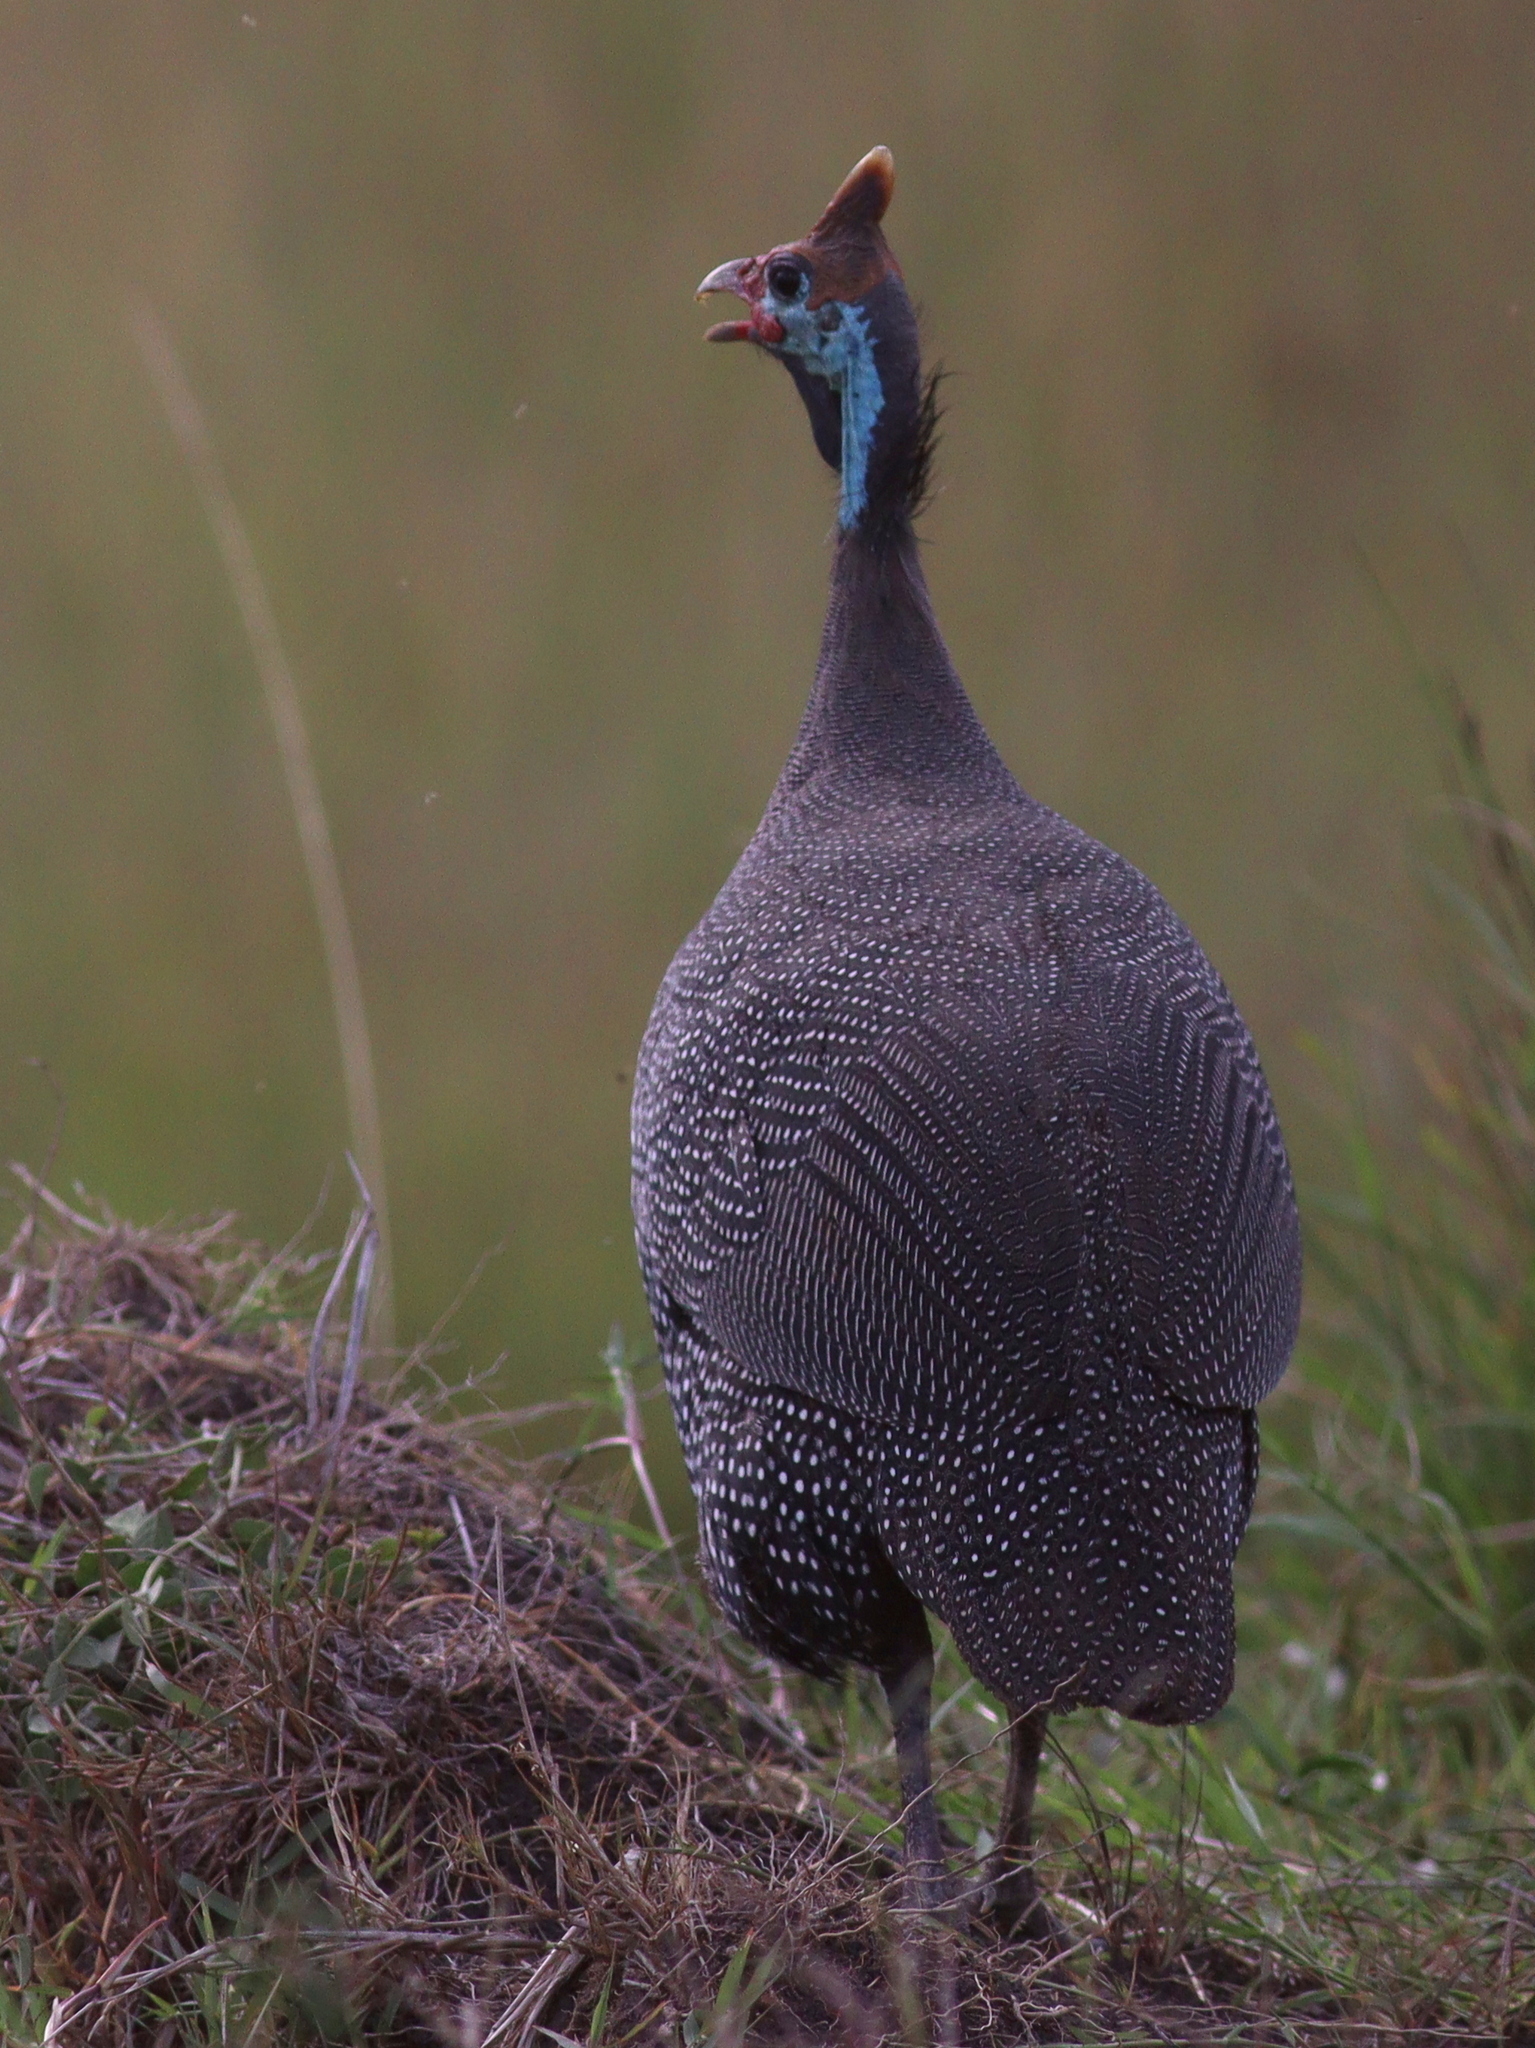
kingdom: Animalia
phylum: Chordata
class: Aves
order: Galliformes
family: Numididae
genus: Numida
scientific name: Numida meleagris
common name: Helmeted guineafowl
